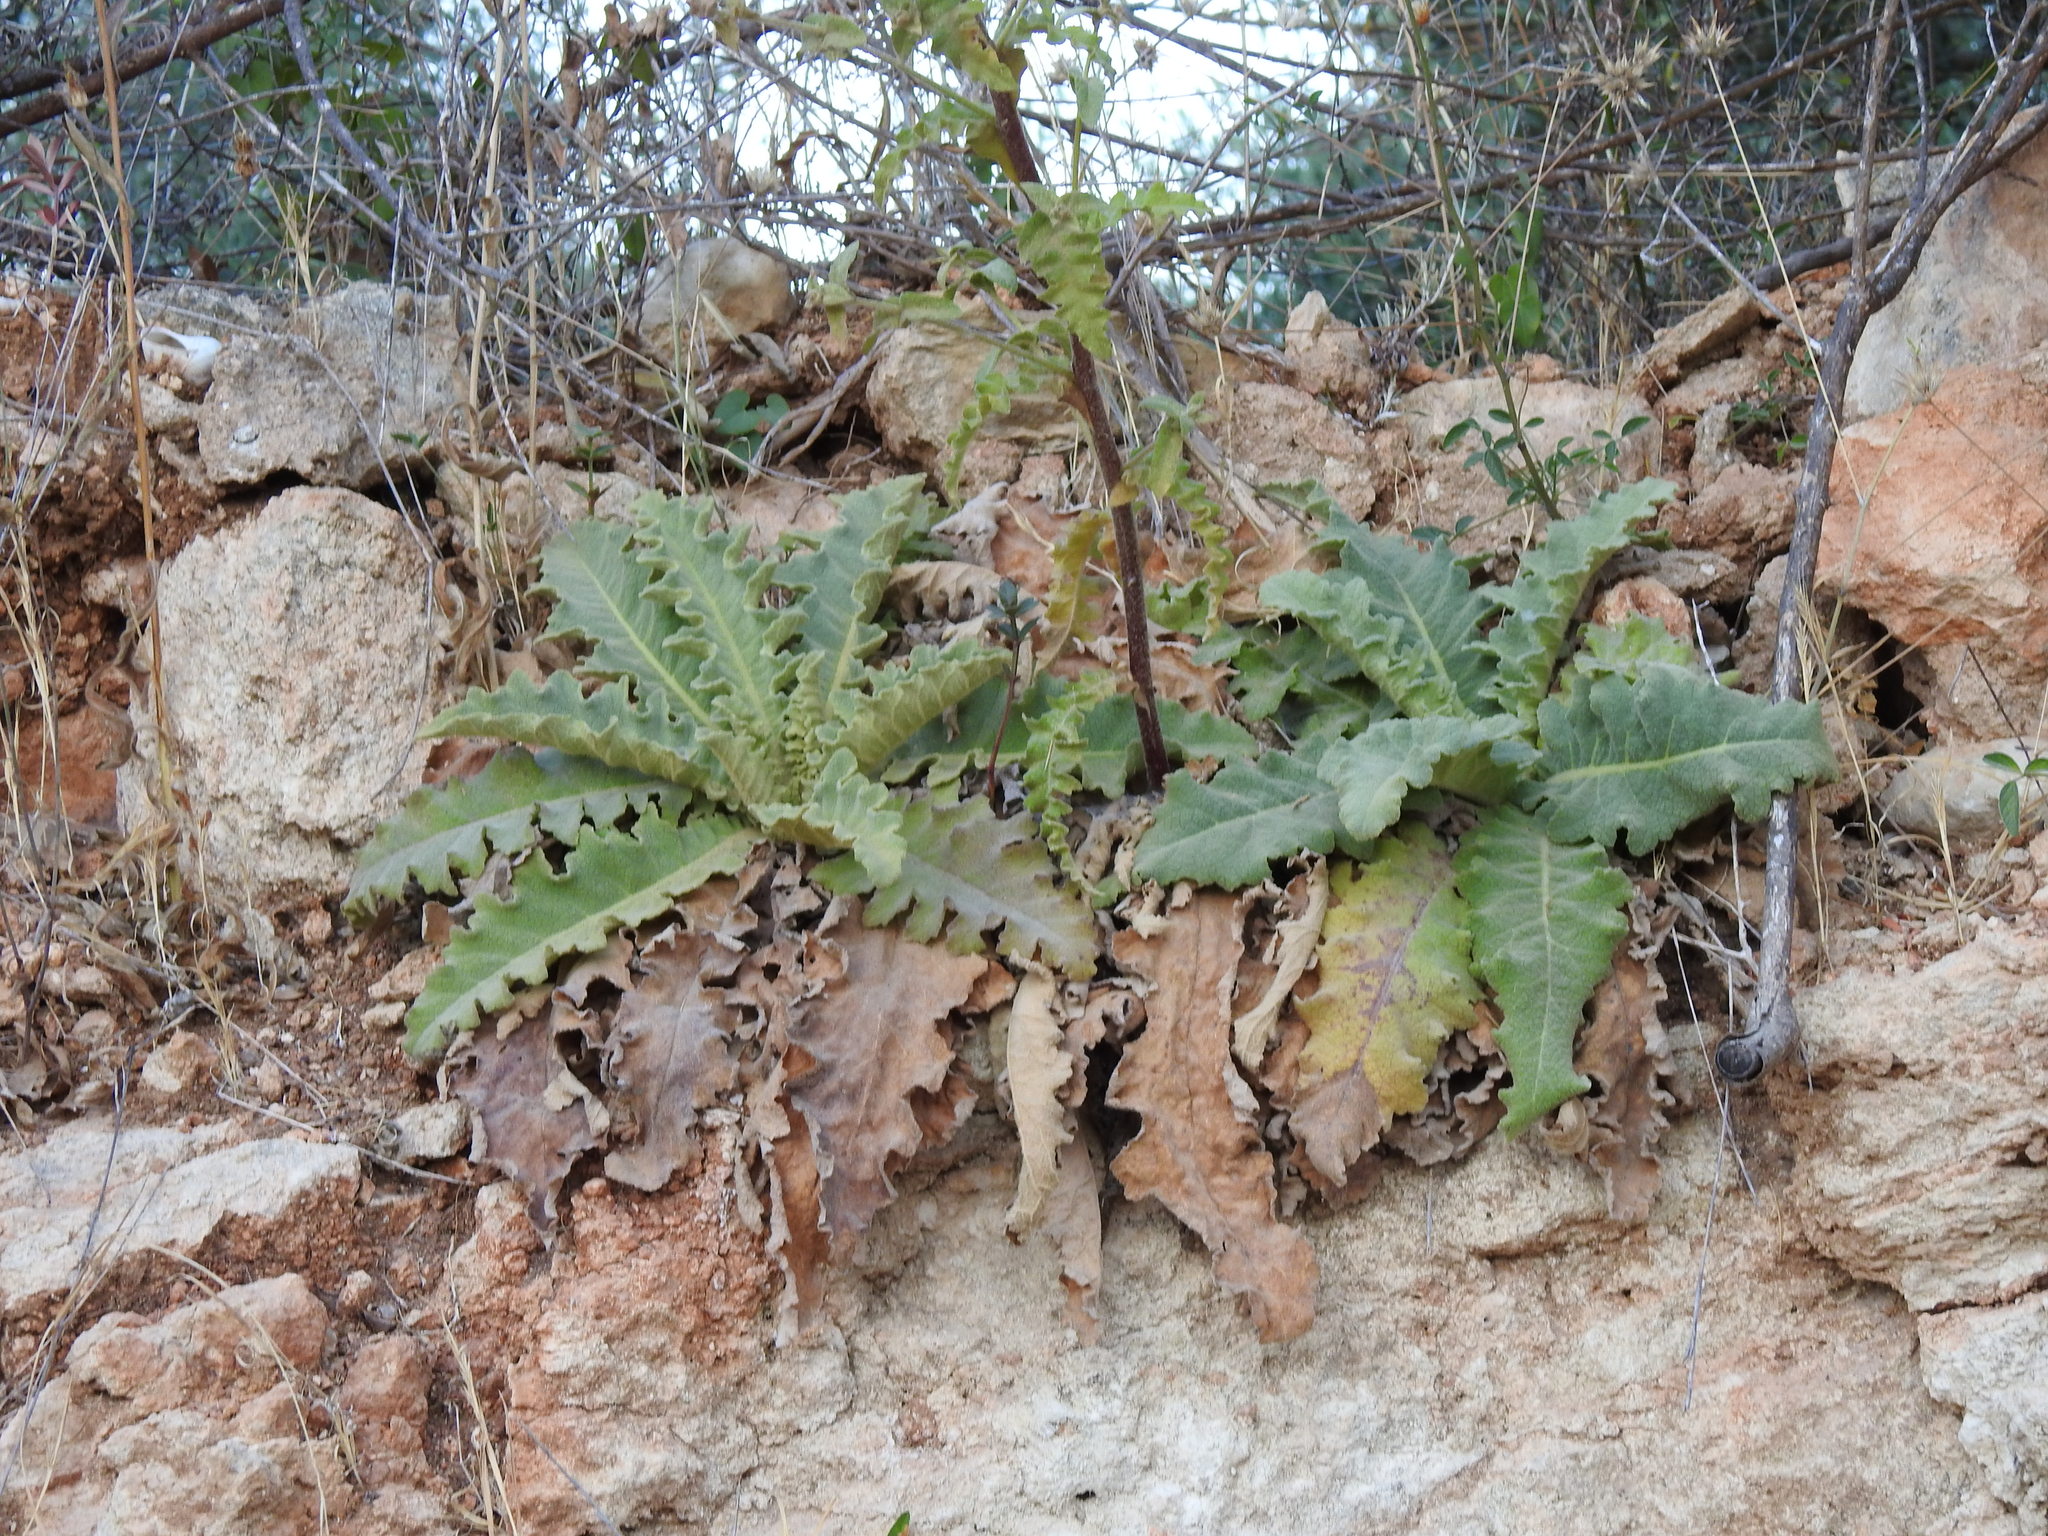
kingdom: Plantae
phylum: Tracheophyta
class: Magnoliopsida
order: Lamiales
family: Scrophulariaceae
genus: Verbascum
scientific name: Verbascum sinuatum
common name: Wavyleaf mullein
